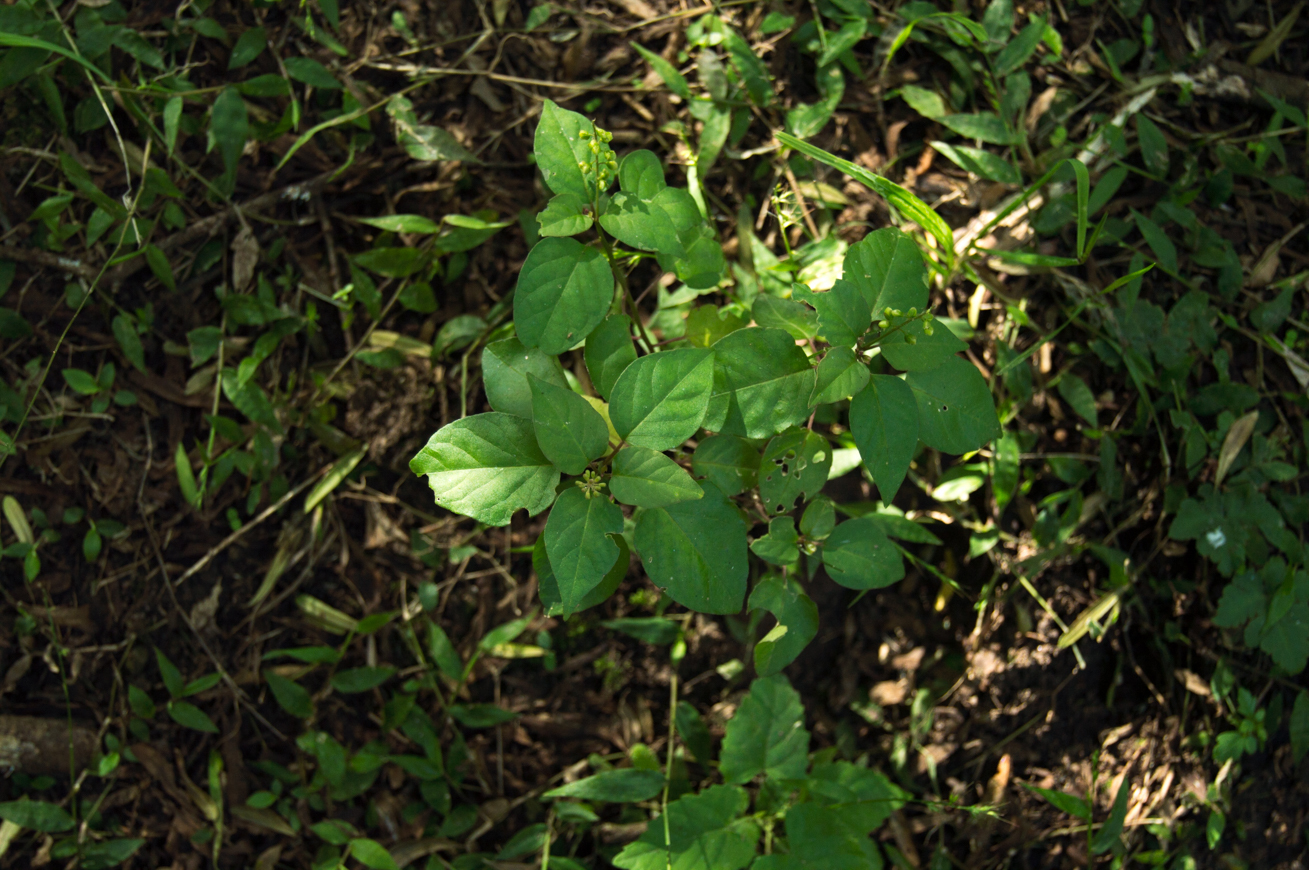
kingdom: Plantae
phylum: Tracheophyta
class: Magnoliopsida
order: Caryophyllales
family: Phytolaccaceae
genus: Rivina
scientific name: Rivina humilis
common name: Rougeplant
